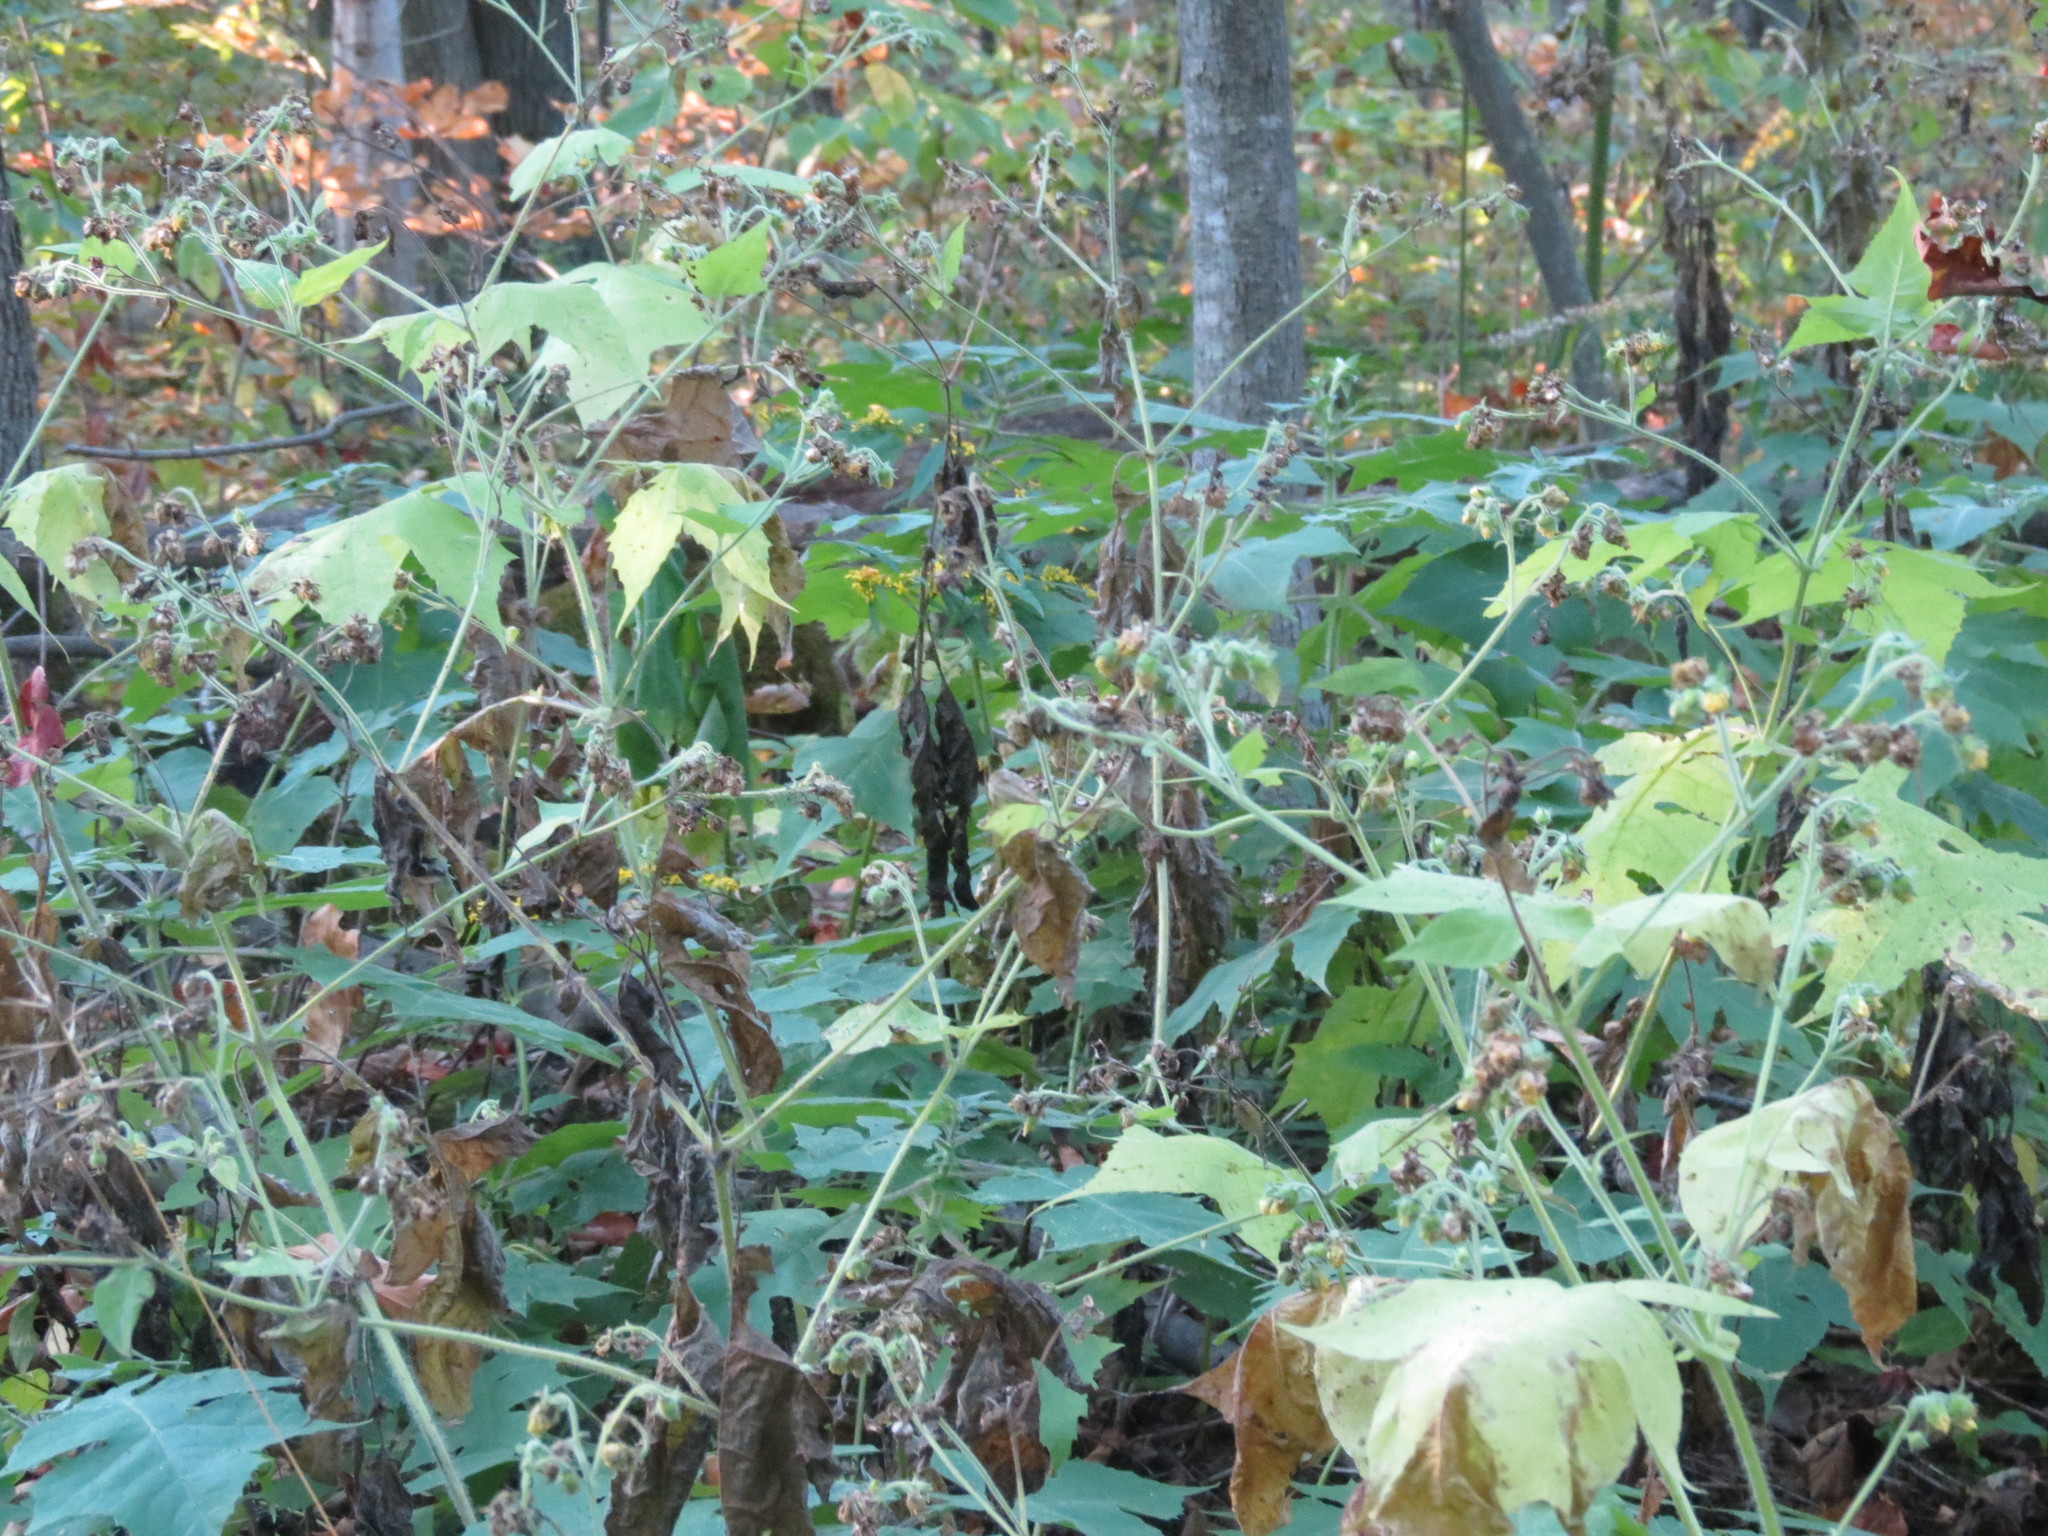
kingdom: Plantae
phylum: Tracheophyta
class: Magnoliopsida
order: Asterales
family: Asteraceae
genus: Polymnia
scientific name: Polymnia canadensis
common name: Pale-flowered leafcup
